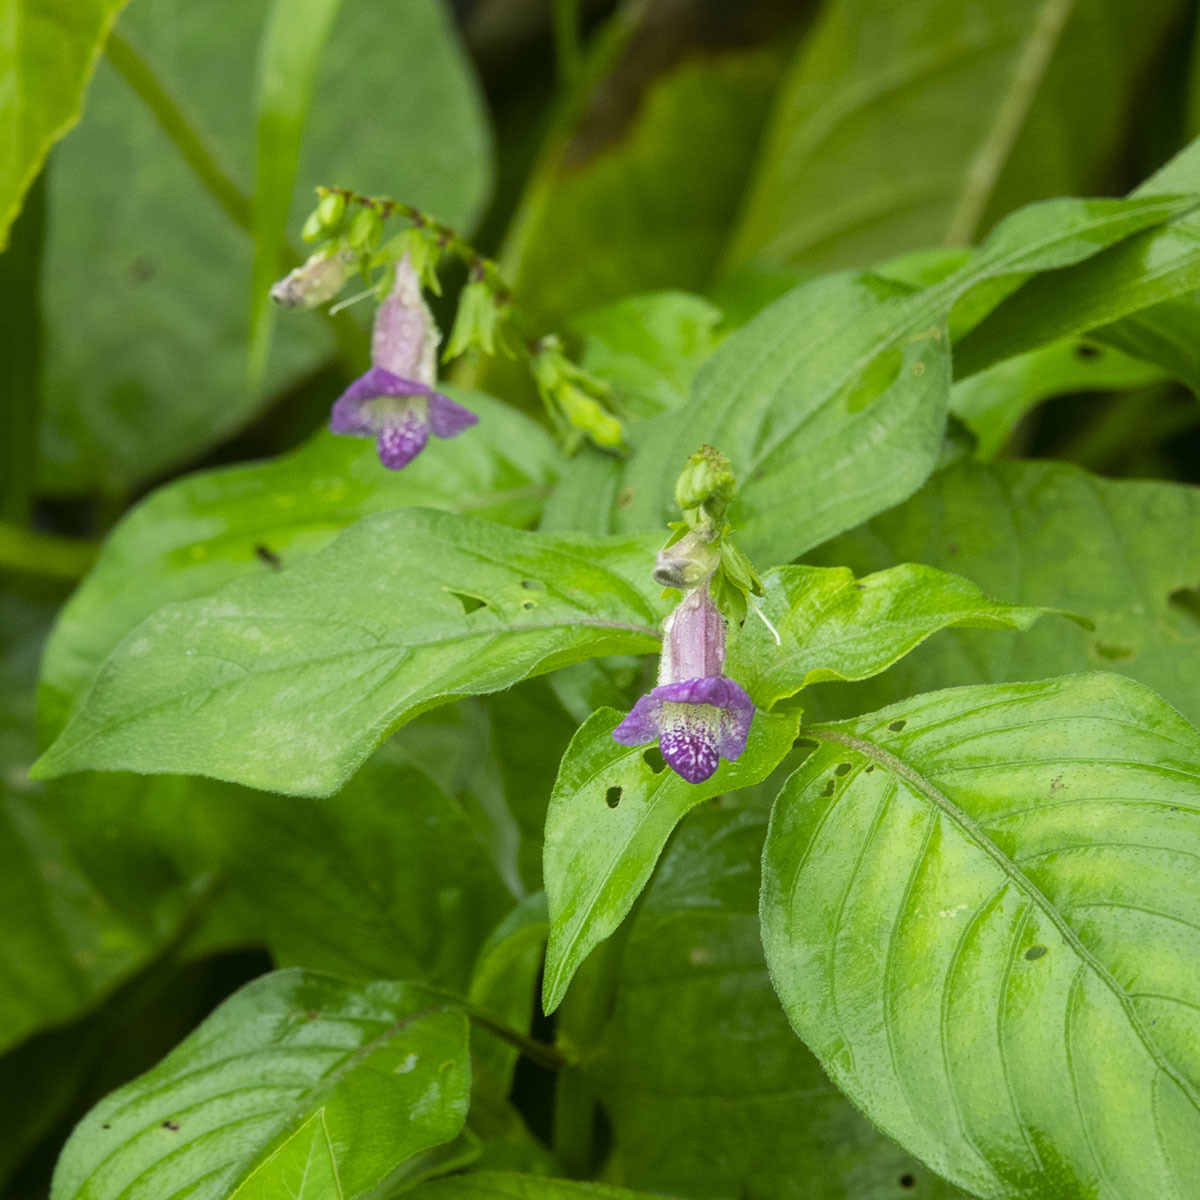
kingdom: Plantae
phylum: Tracheophyta
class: Magnoliopsida
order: Lamiales
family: Acanthaceae
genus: Asystasia
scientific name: Asystasia dalzelliana
